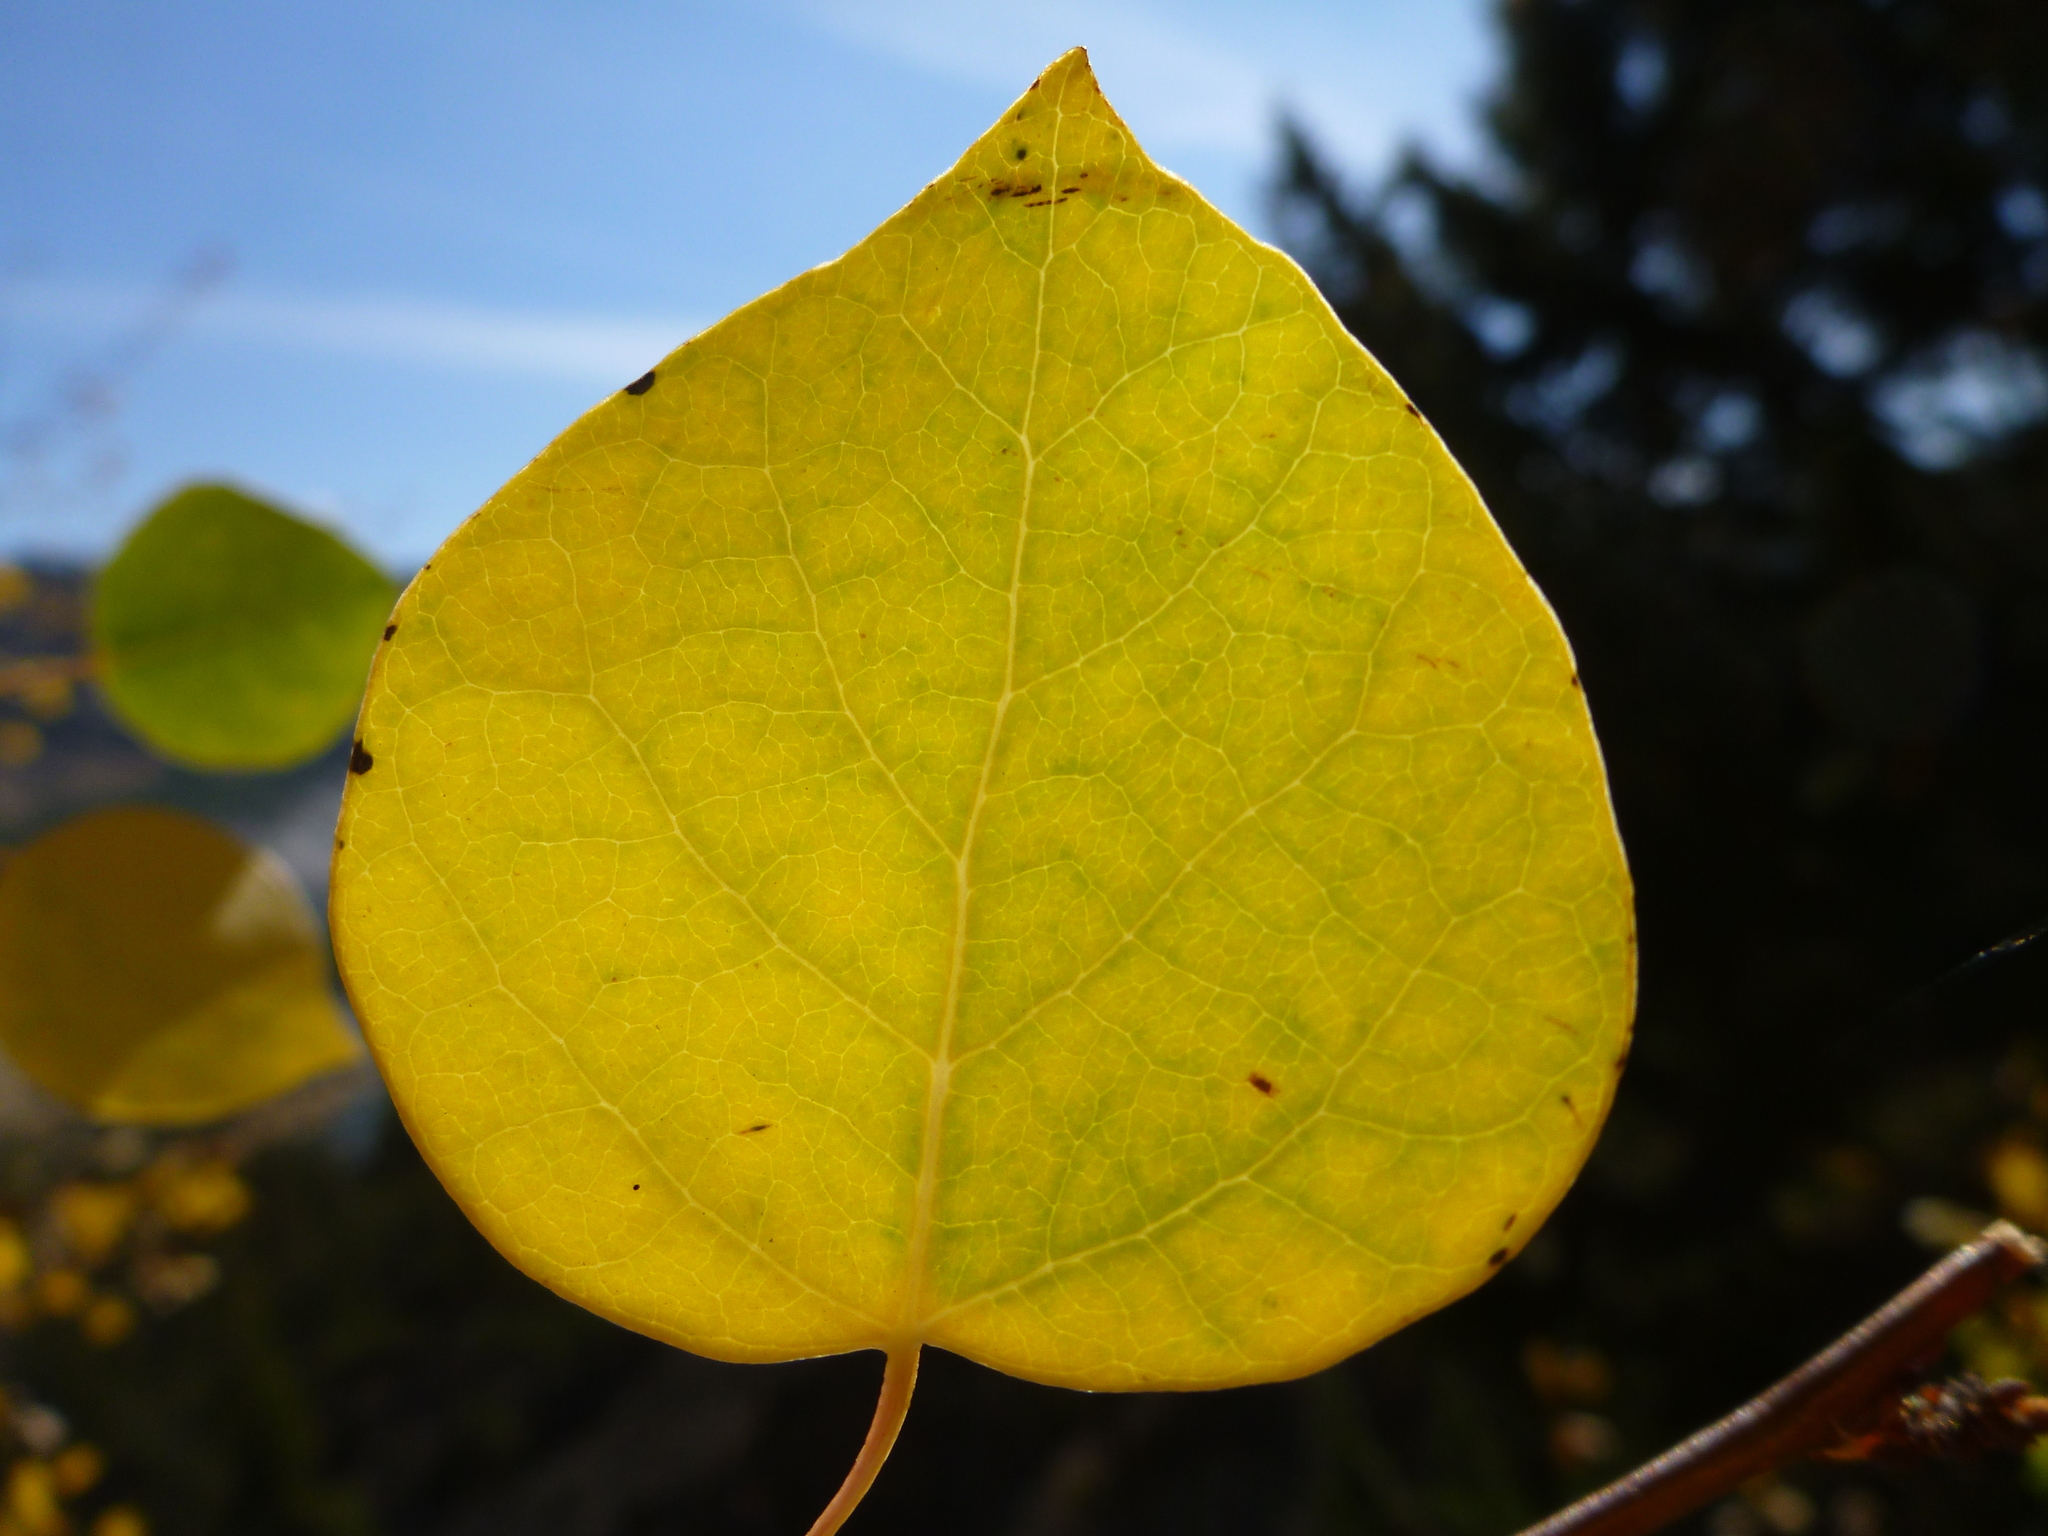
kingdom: Plantae
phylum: Tracheophyta
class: Magnoliopsida
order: Malpighiales
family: Salicaceae
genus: Populus
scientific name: Populus tremuloides
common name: Quaking aspen
